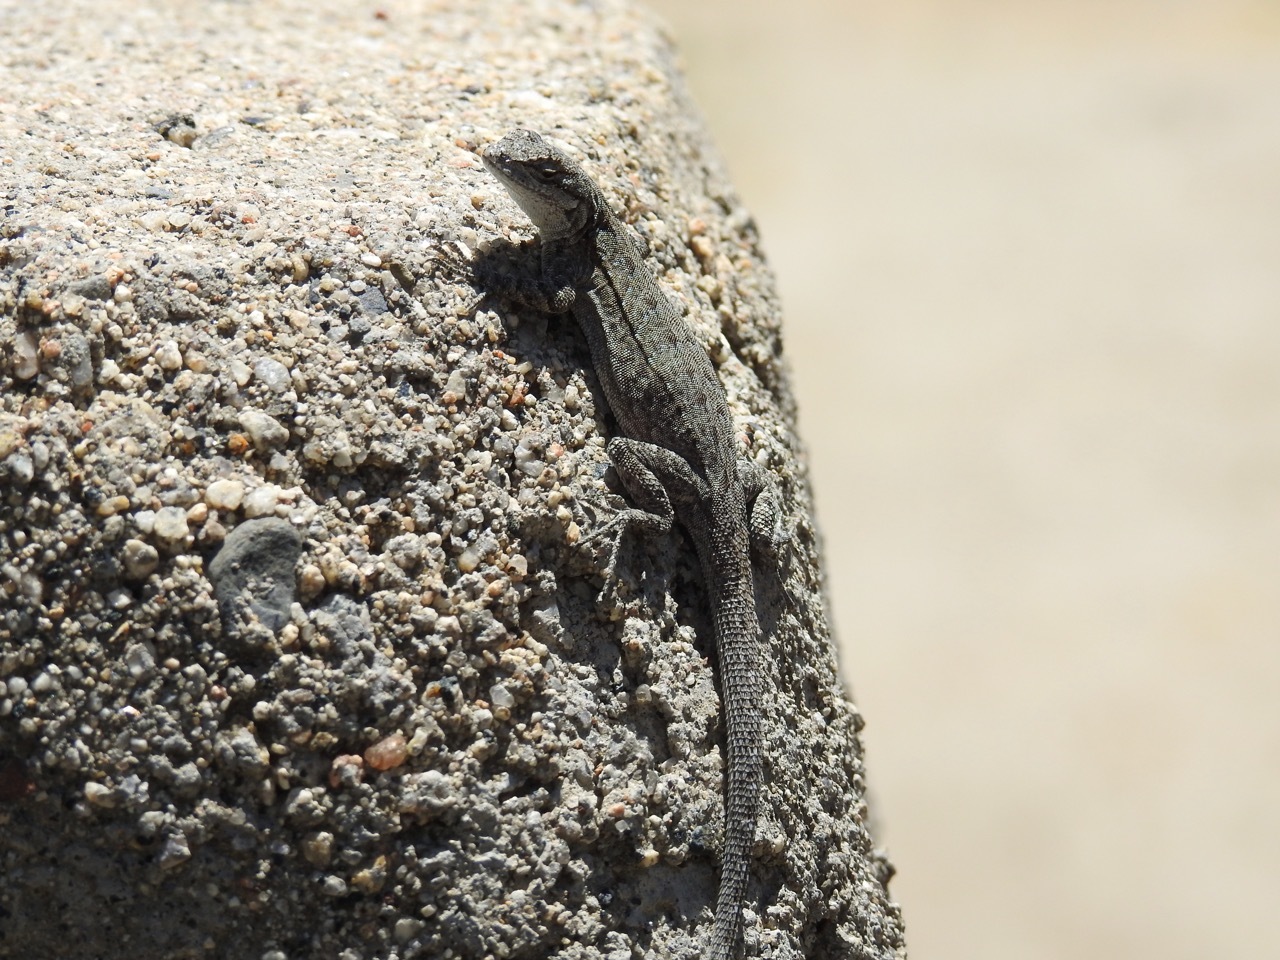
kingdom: Animalia
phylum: Chordata
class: Squamata
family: Phrynosomatidae
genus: Urosaurus
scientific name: Urosaurus nigricauda
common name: Baja california brush lizard
